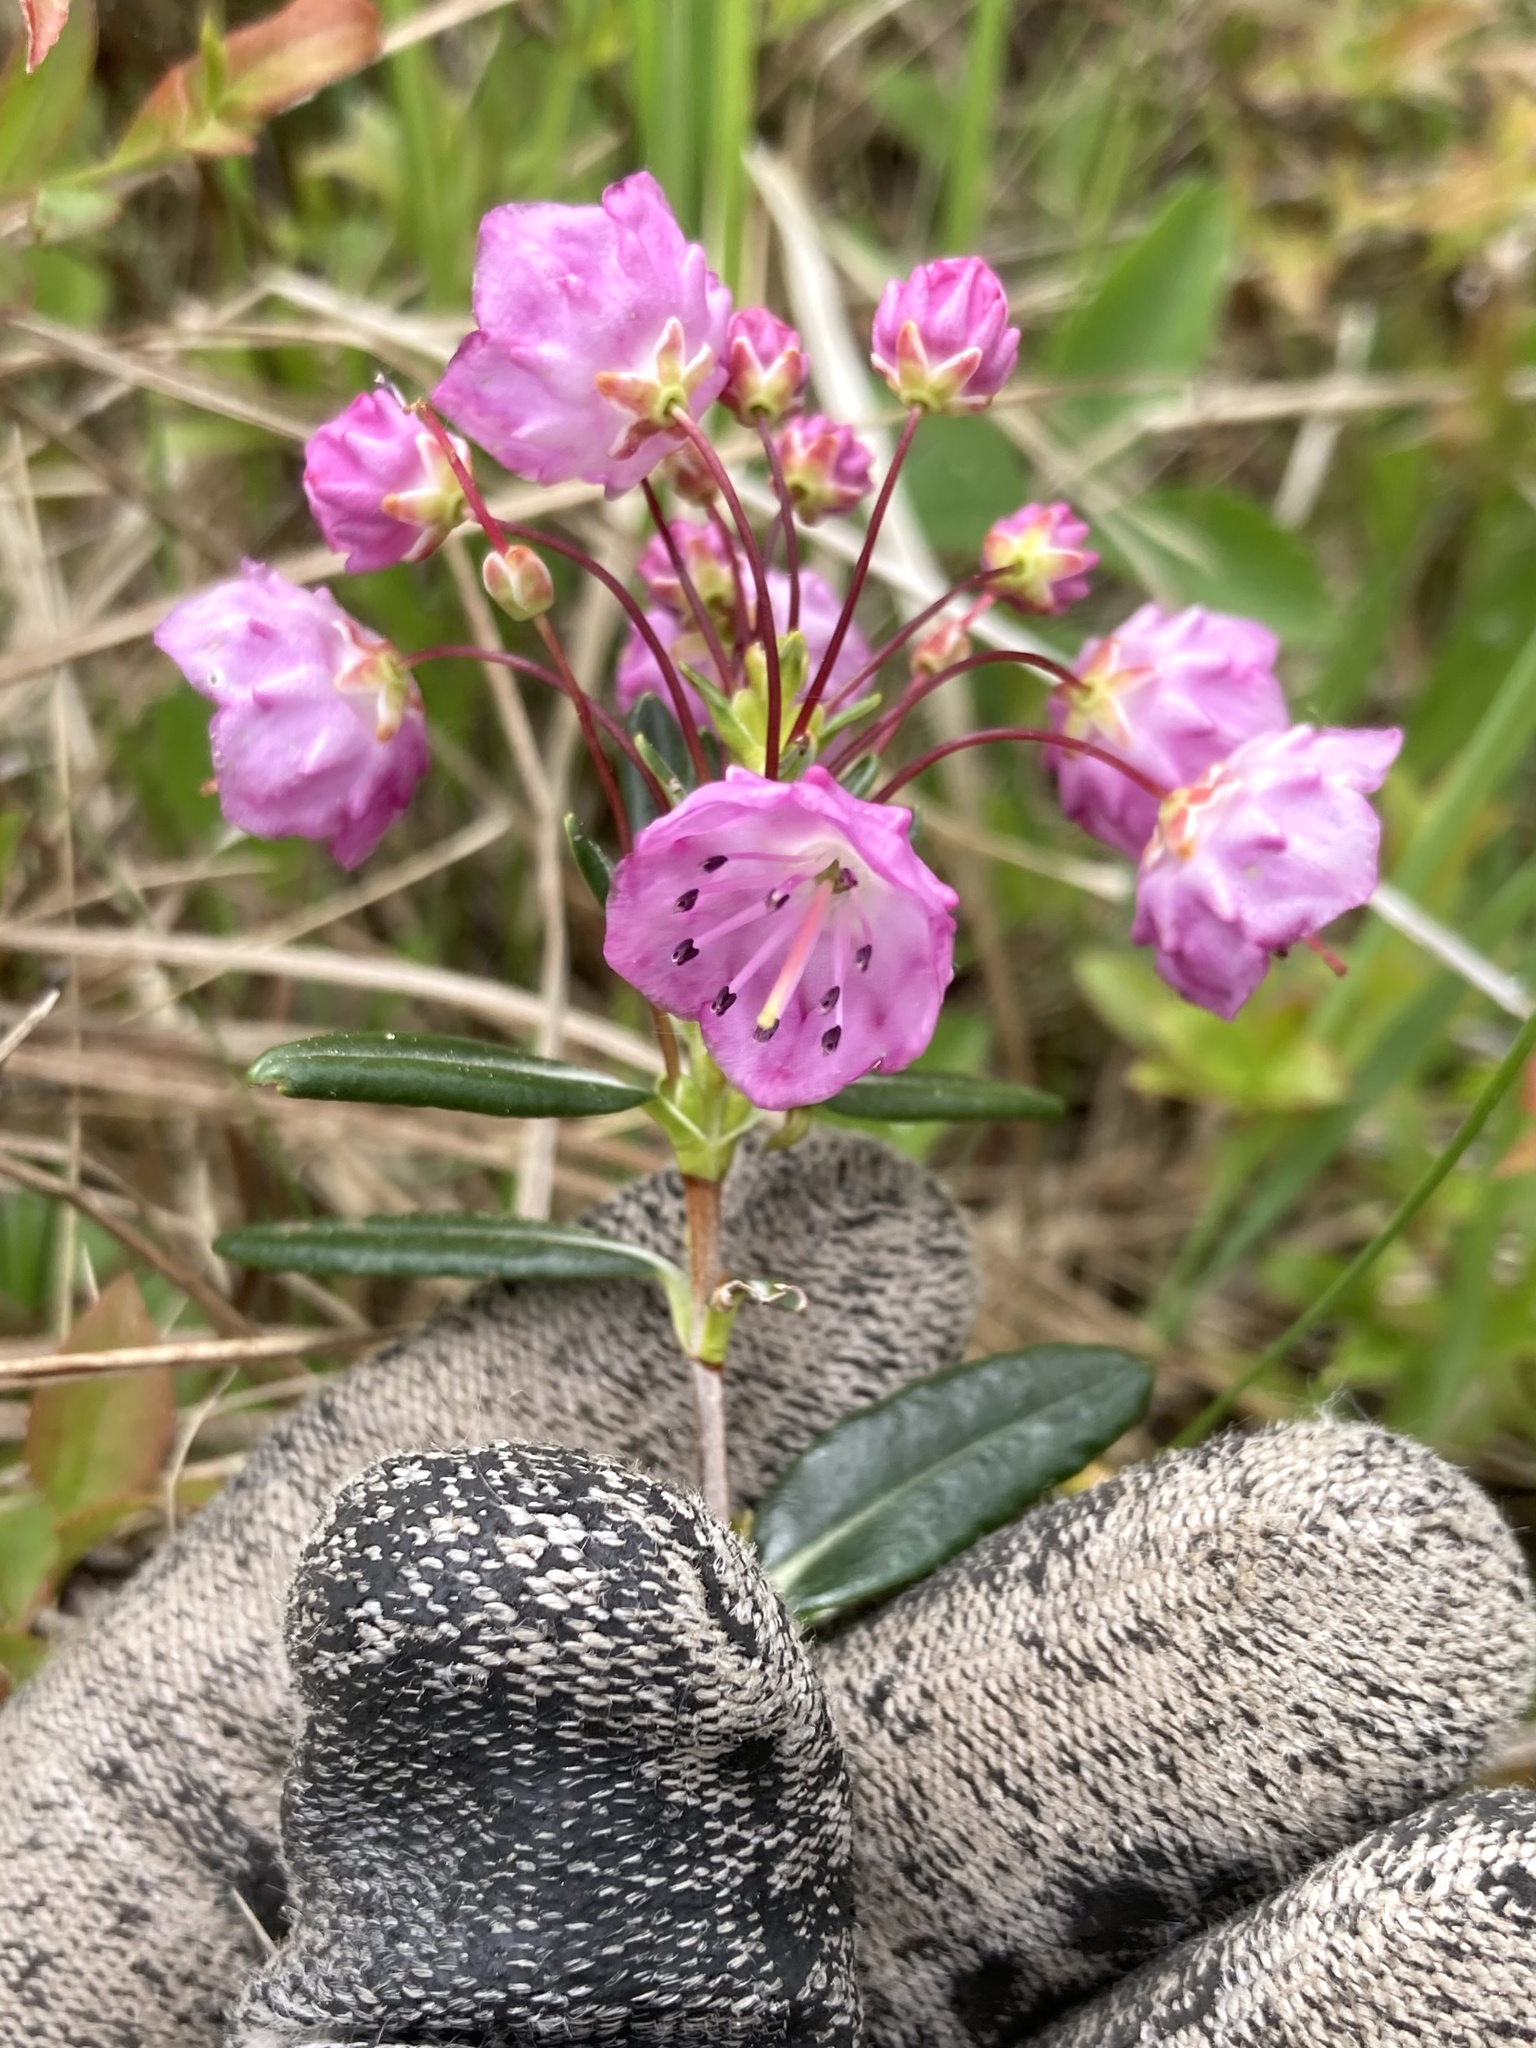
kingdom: Plantae
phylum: Tracheophyta
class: Magnoliopsida
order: Ericales
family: Ericaceae
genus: Kalmia
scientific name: Kalmia polifolia
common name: Bog-laurel
